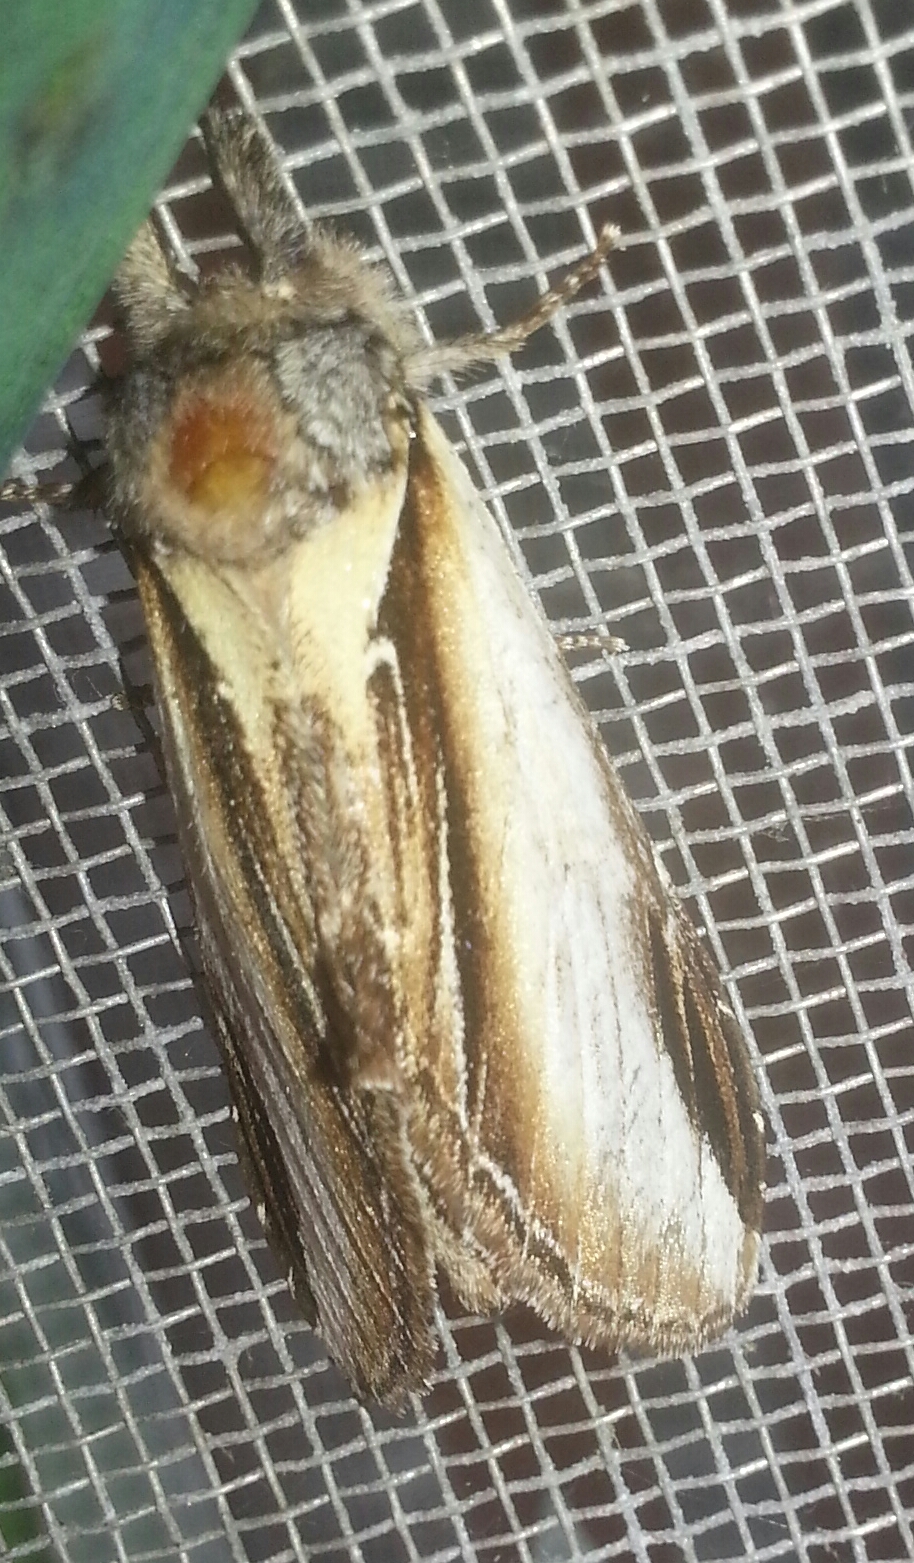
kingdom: Animalia
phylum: Arthropoda
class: Insecta
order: Lepidoptera
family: Notodontidae
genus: Pheosia
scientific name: Pheosia rimosa
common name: Black-rimmed prominent
